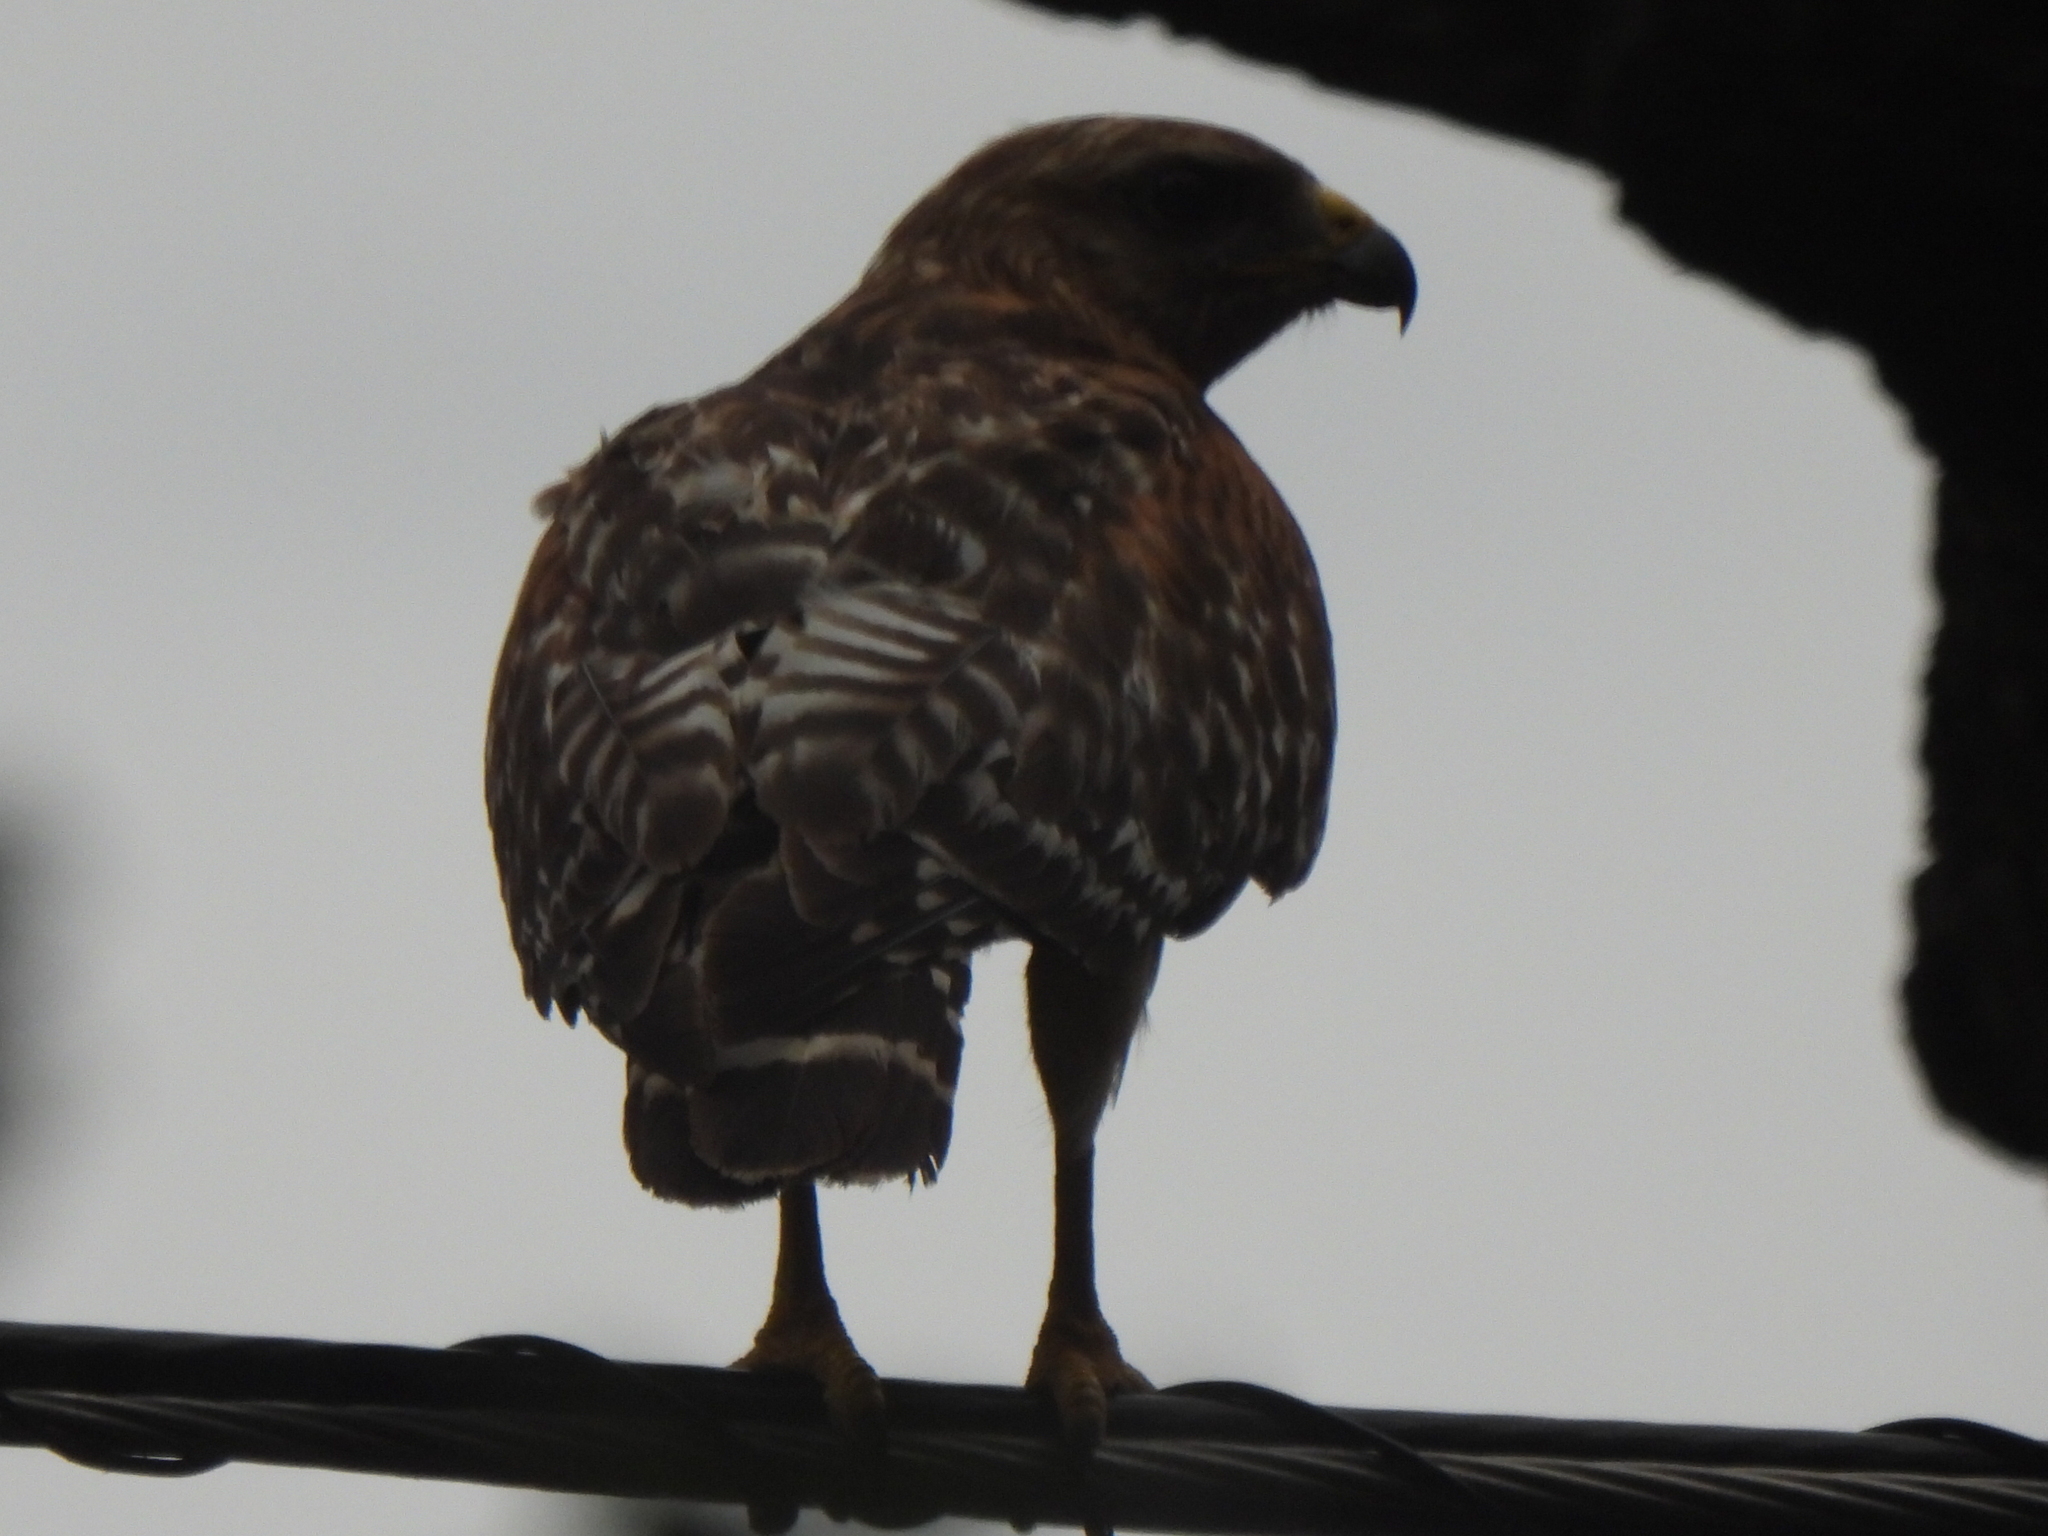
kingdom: Animalia
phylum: Chordata
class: Aves
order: Accipitriformes
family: Accipitridae
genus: Buteo
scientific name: Buteo lineatus
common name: Red-shouldered hawk
